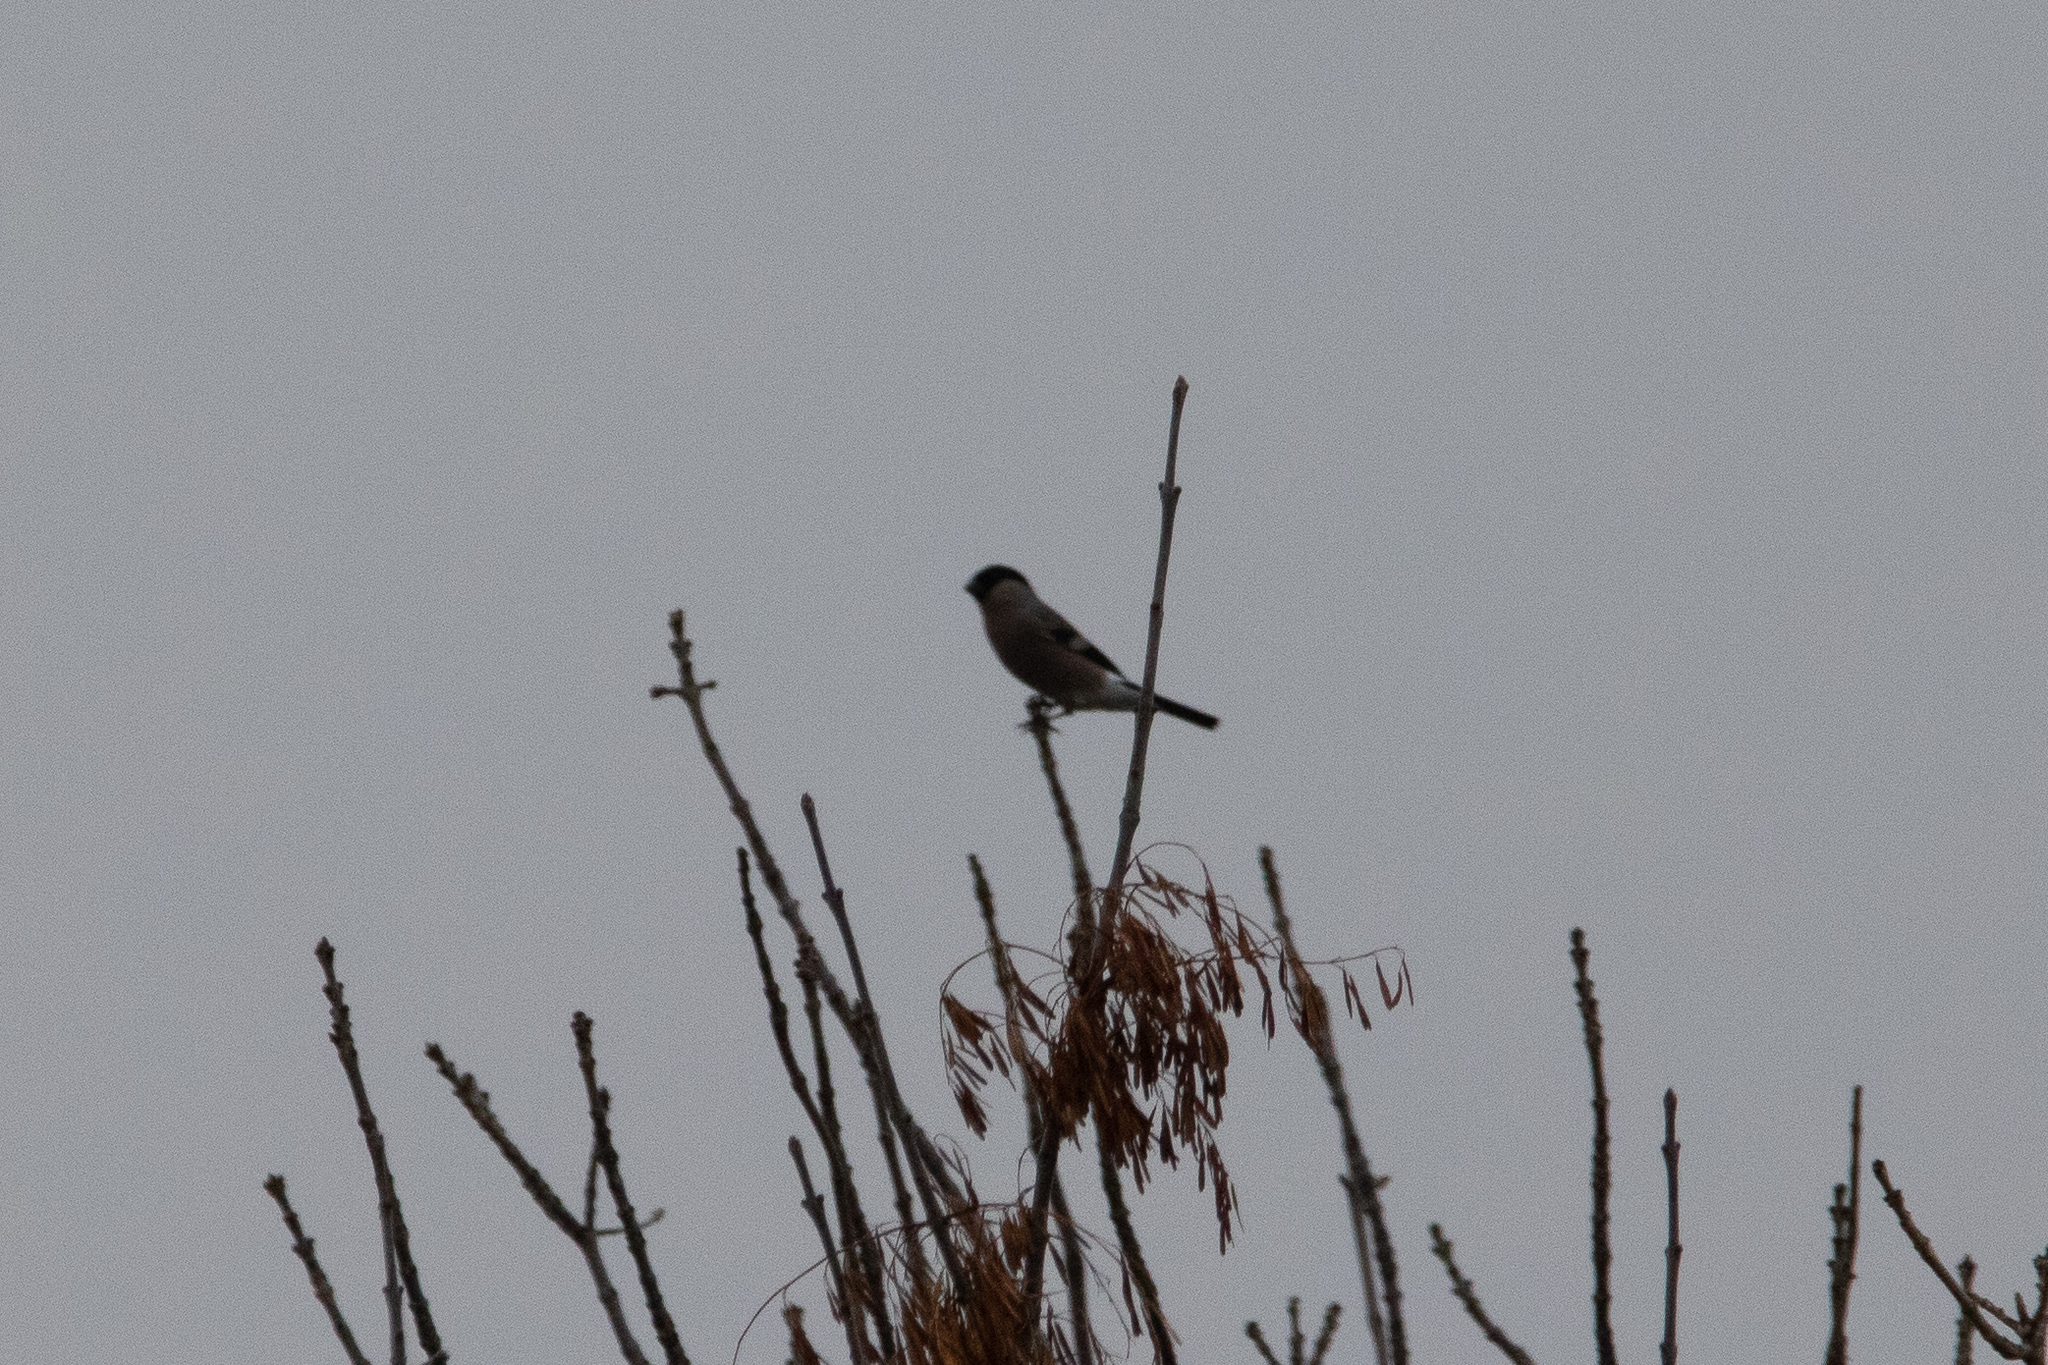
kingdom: Animalia
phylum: Chordata
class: Aves
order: Passeriformes
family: Fringillidae
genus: Pyrrhula
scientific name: Pyrrhula pyrrhula
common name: Eurasian bullfinch
